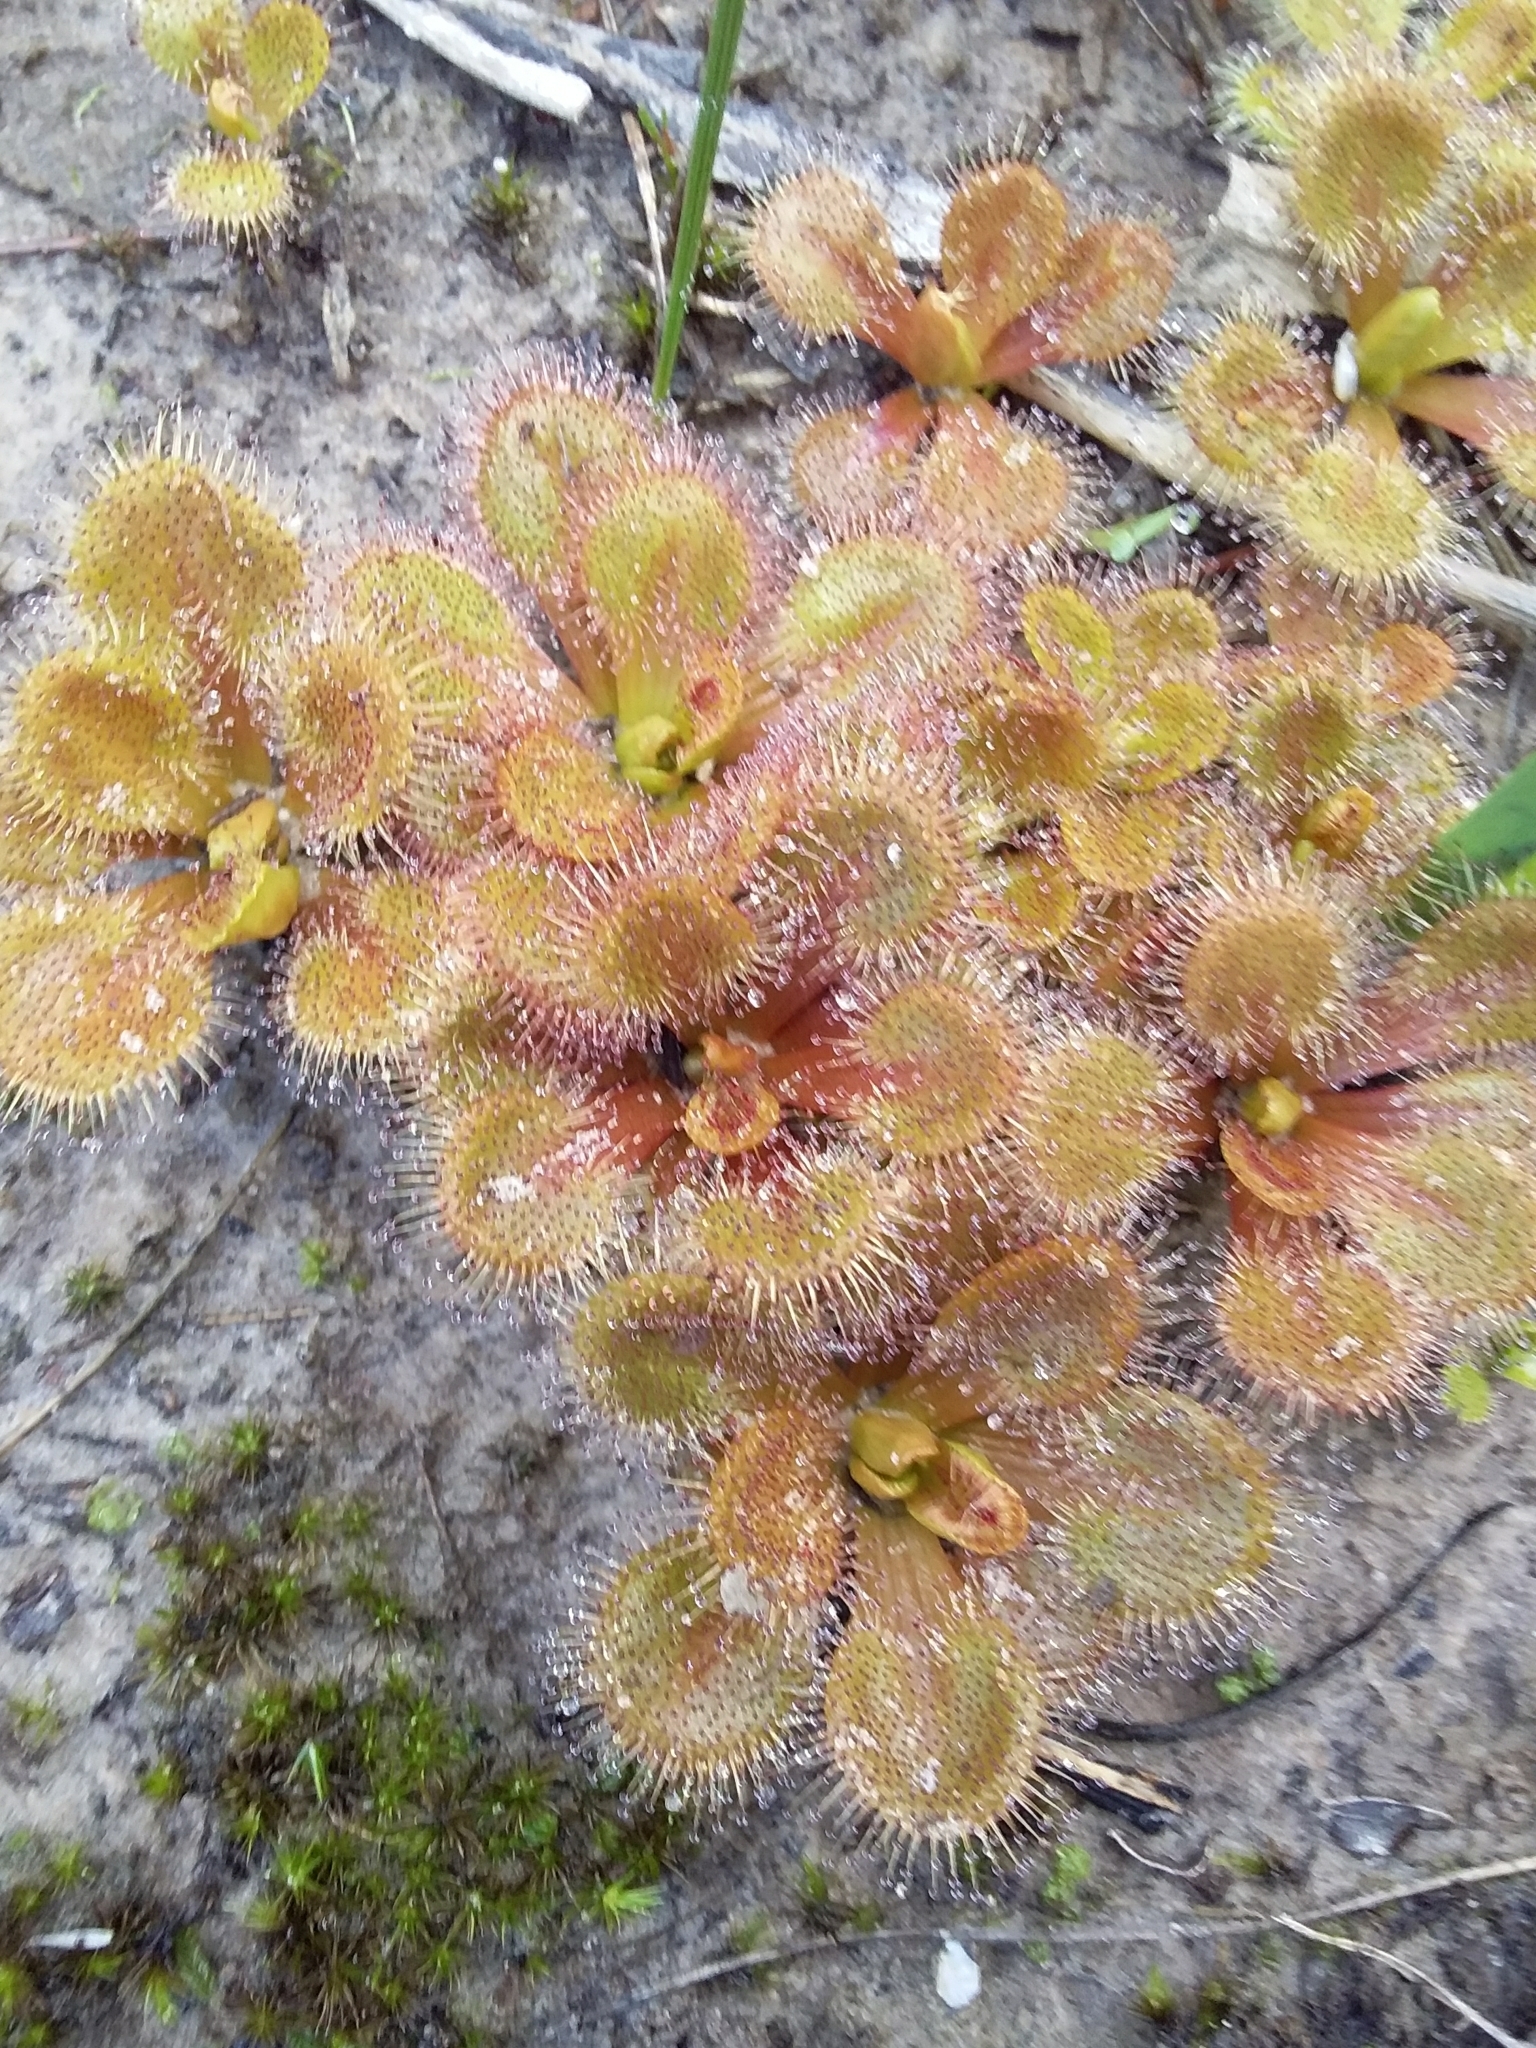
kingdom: Plantae
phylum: Tracheophyta
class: Magnoliopsida
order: Caryophyllales
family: Droseraceae
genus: Drosera
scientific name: Drosera whittakeri
